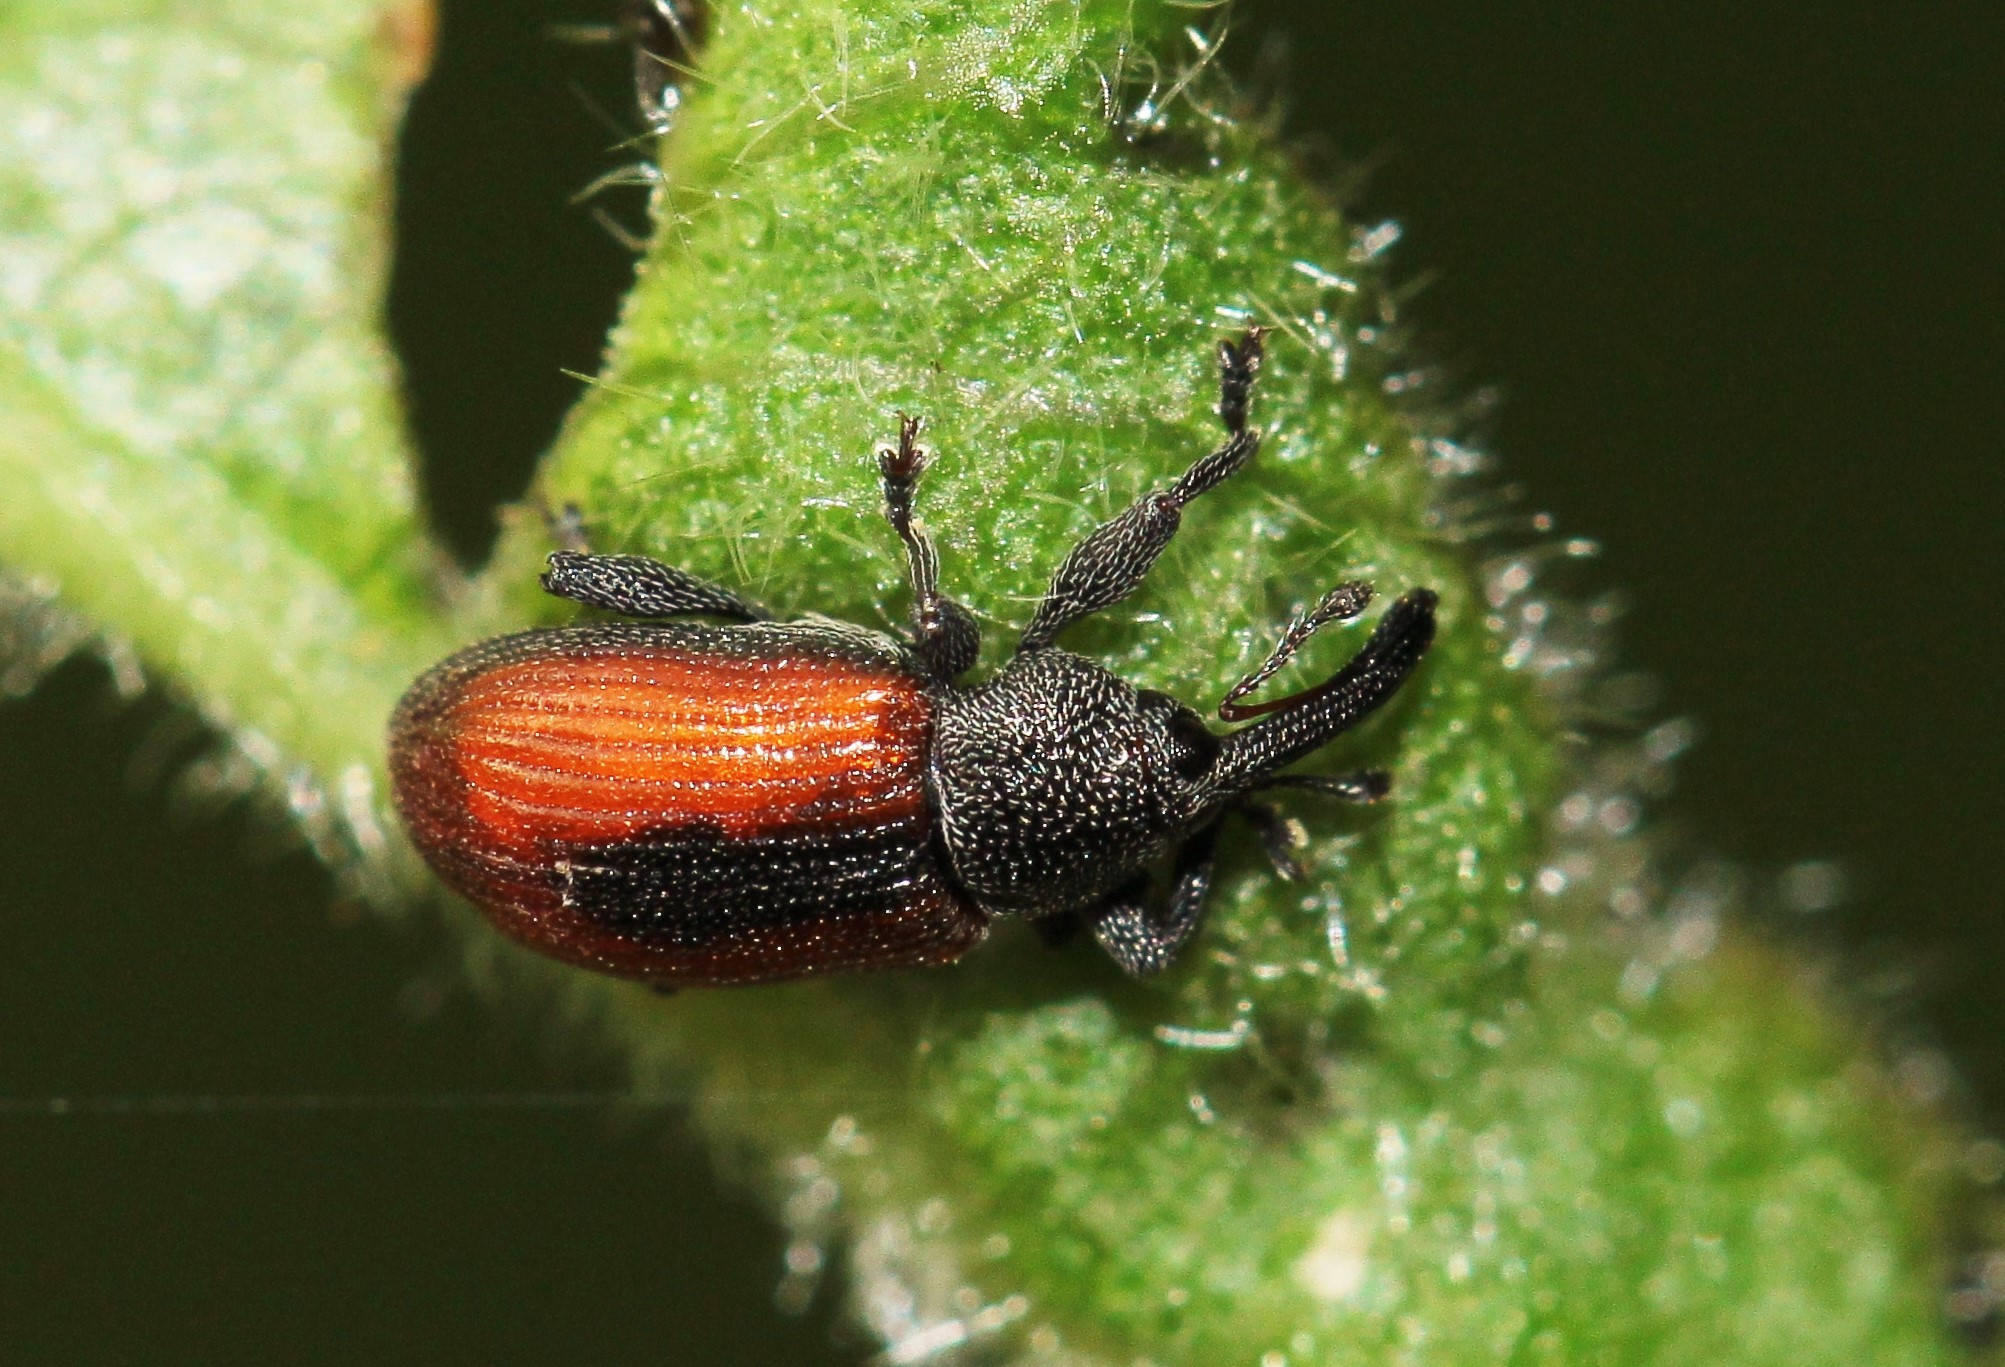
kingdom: Animalia
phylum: Arthropoda
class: Insecta
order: Coleoptera
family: Curculionidae
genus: Dorytomus
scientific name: Dorytomus dorsalis
